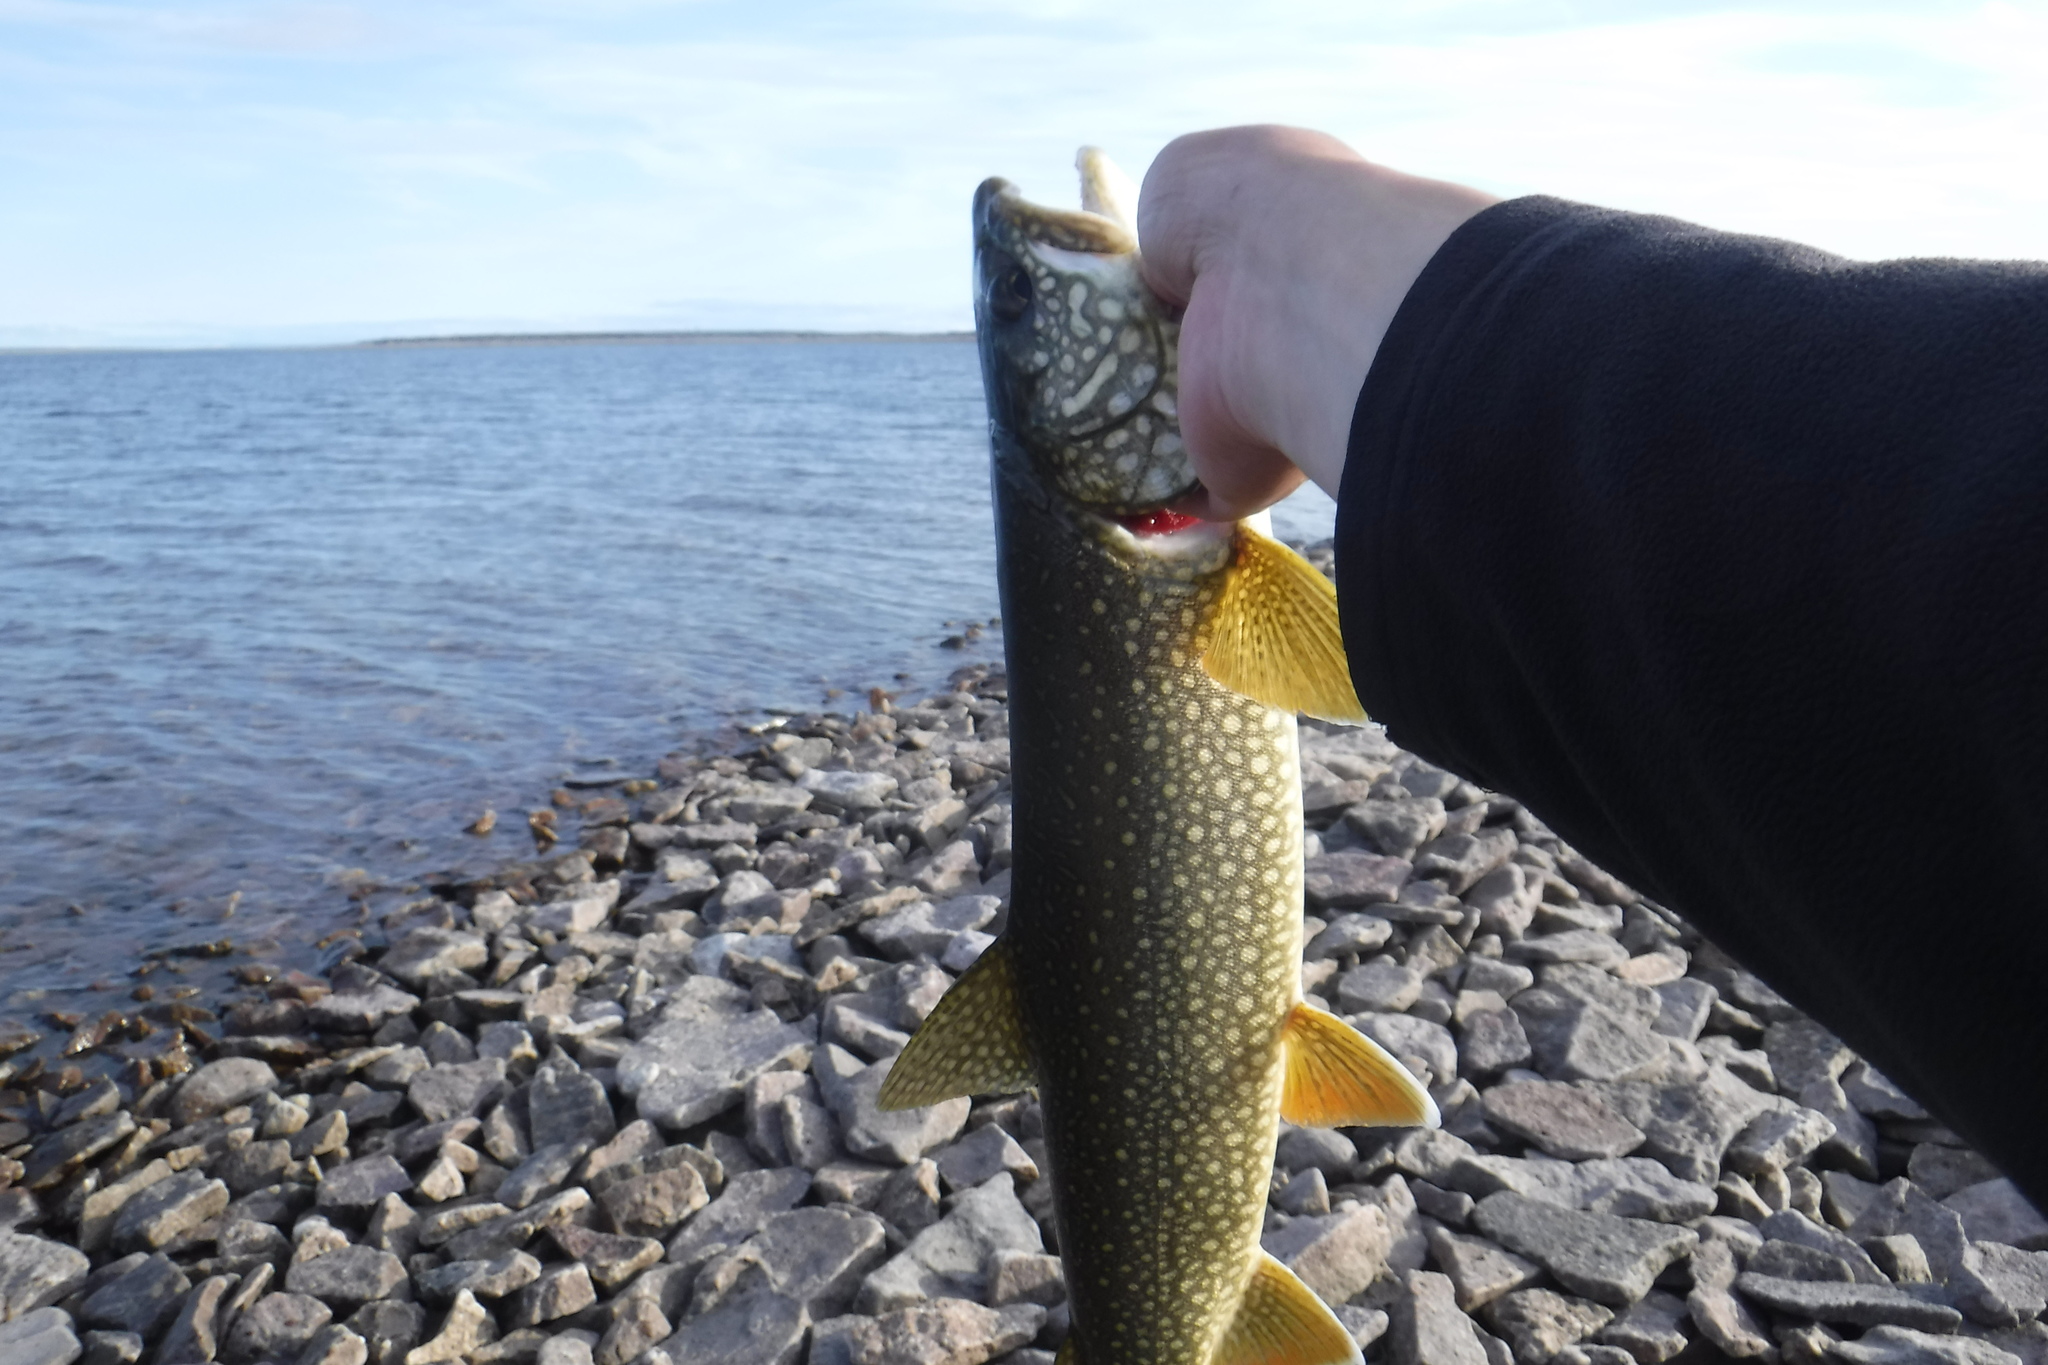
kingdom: Animalia
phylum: Chordata
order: Salmoniformes
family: Salmonidae
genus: Salvelinus
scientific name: Salvelinus namaycush
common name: American lake charr
